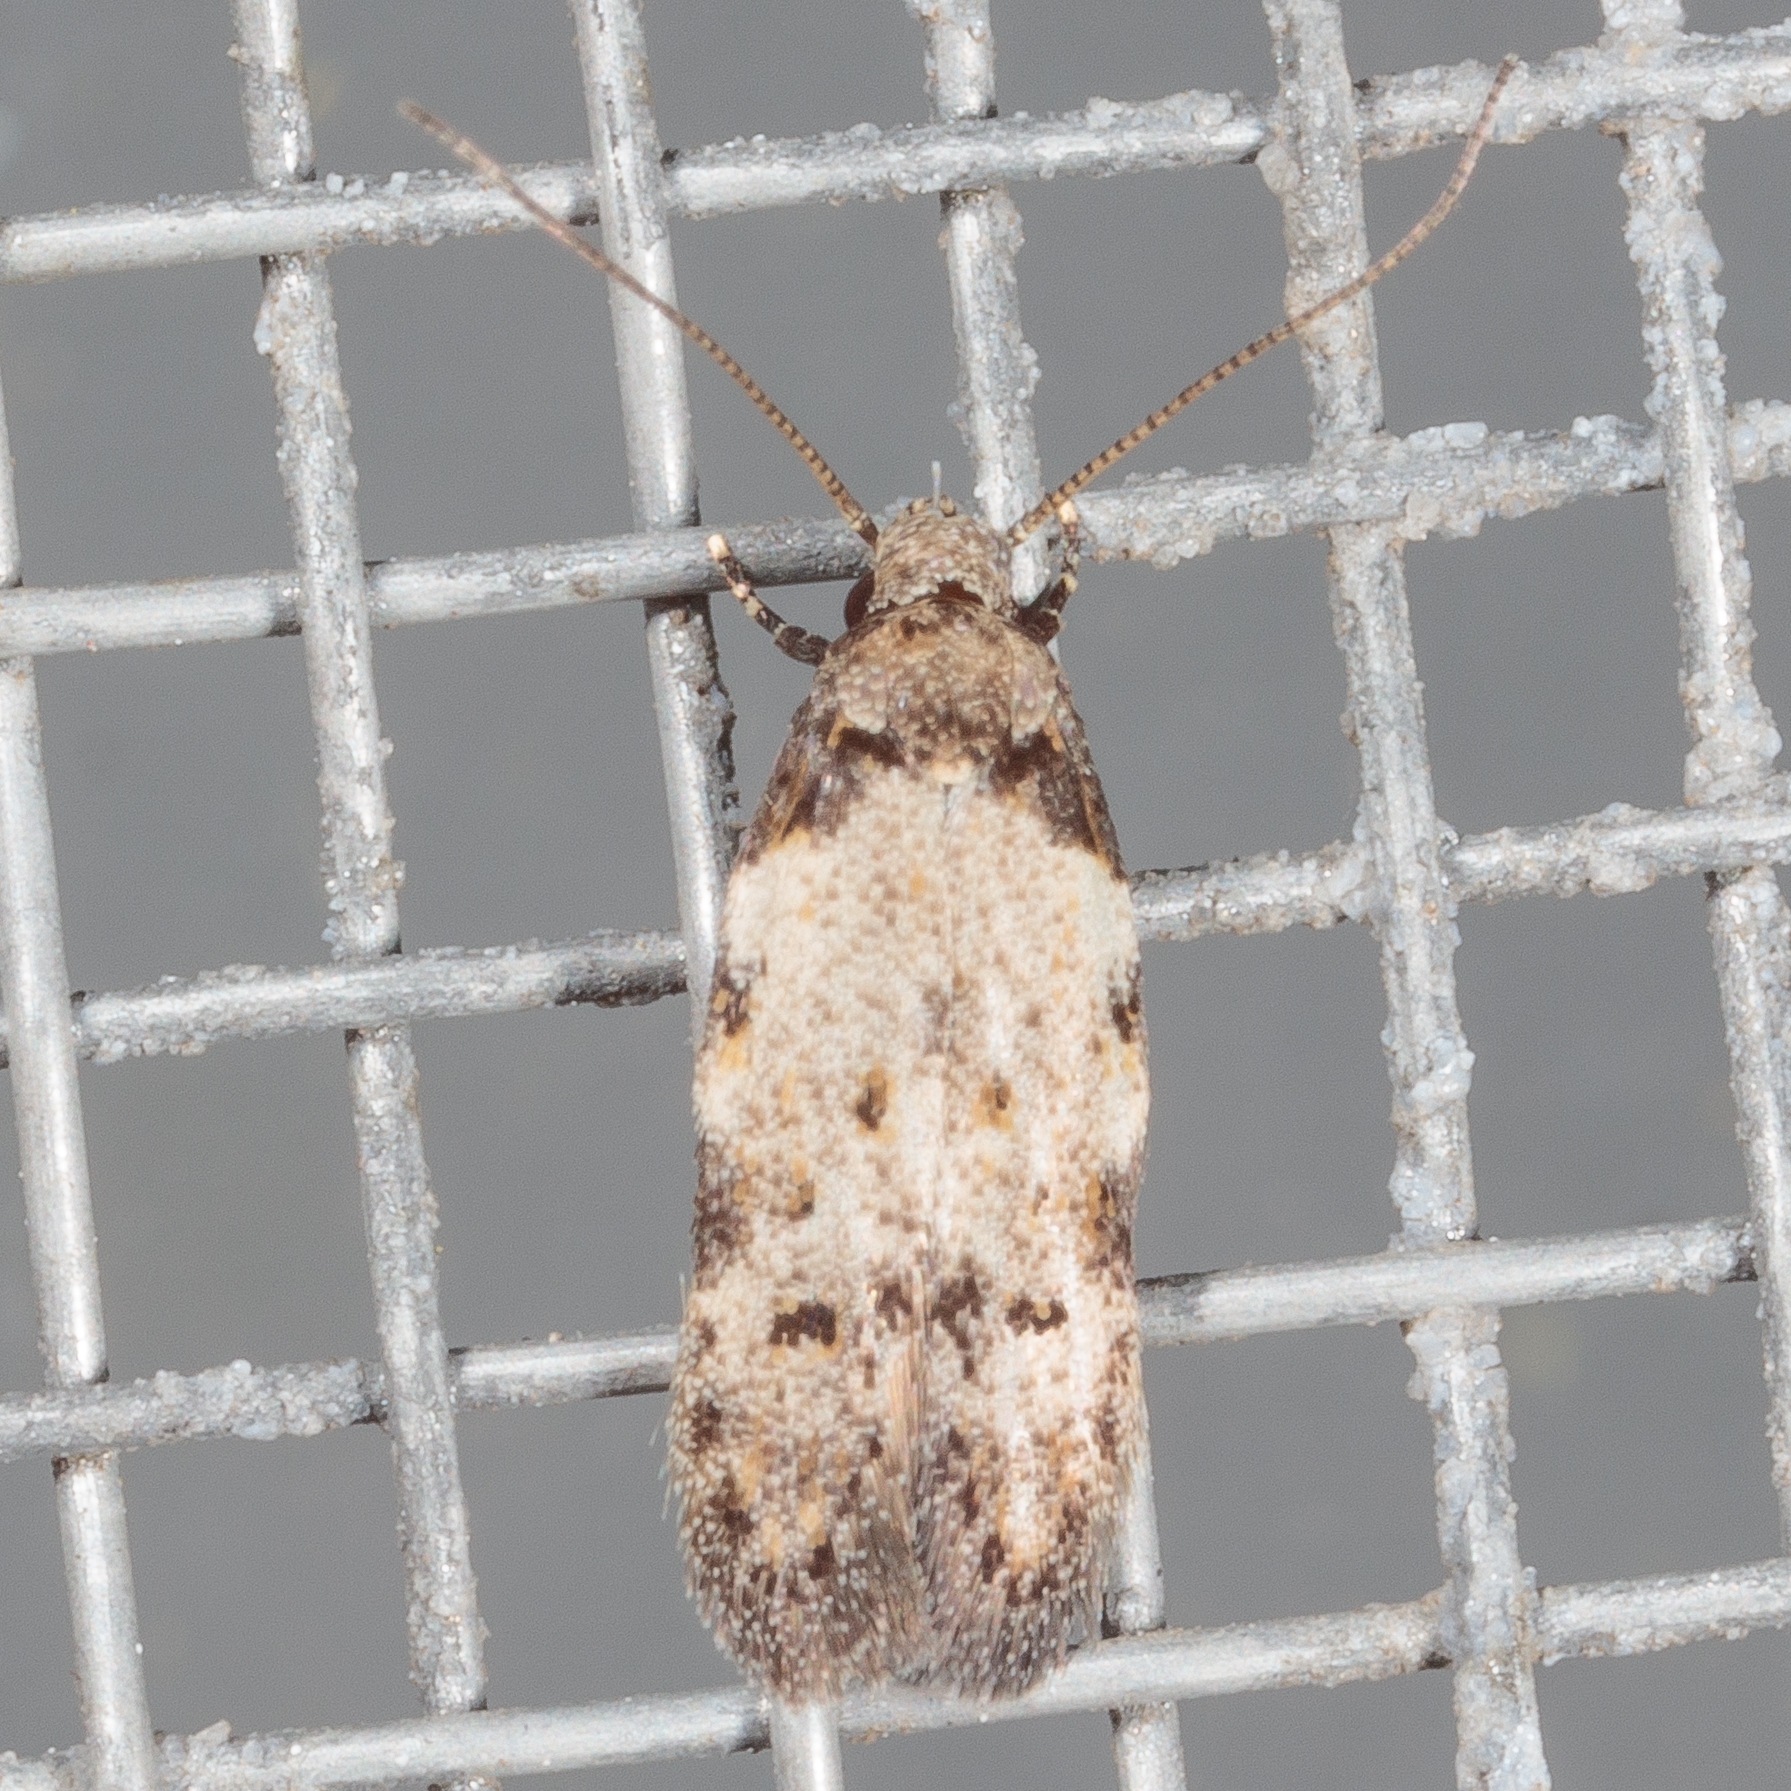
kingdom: Animalia
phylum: Arthropoda
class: Insecta
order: Lepidoptera
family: Autostichidae
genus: Taygete
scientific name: Taygete attributella
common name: Triangle-marked twirler moth
